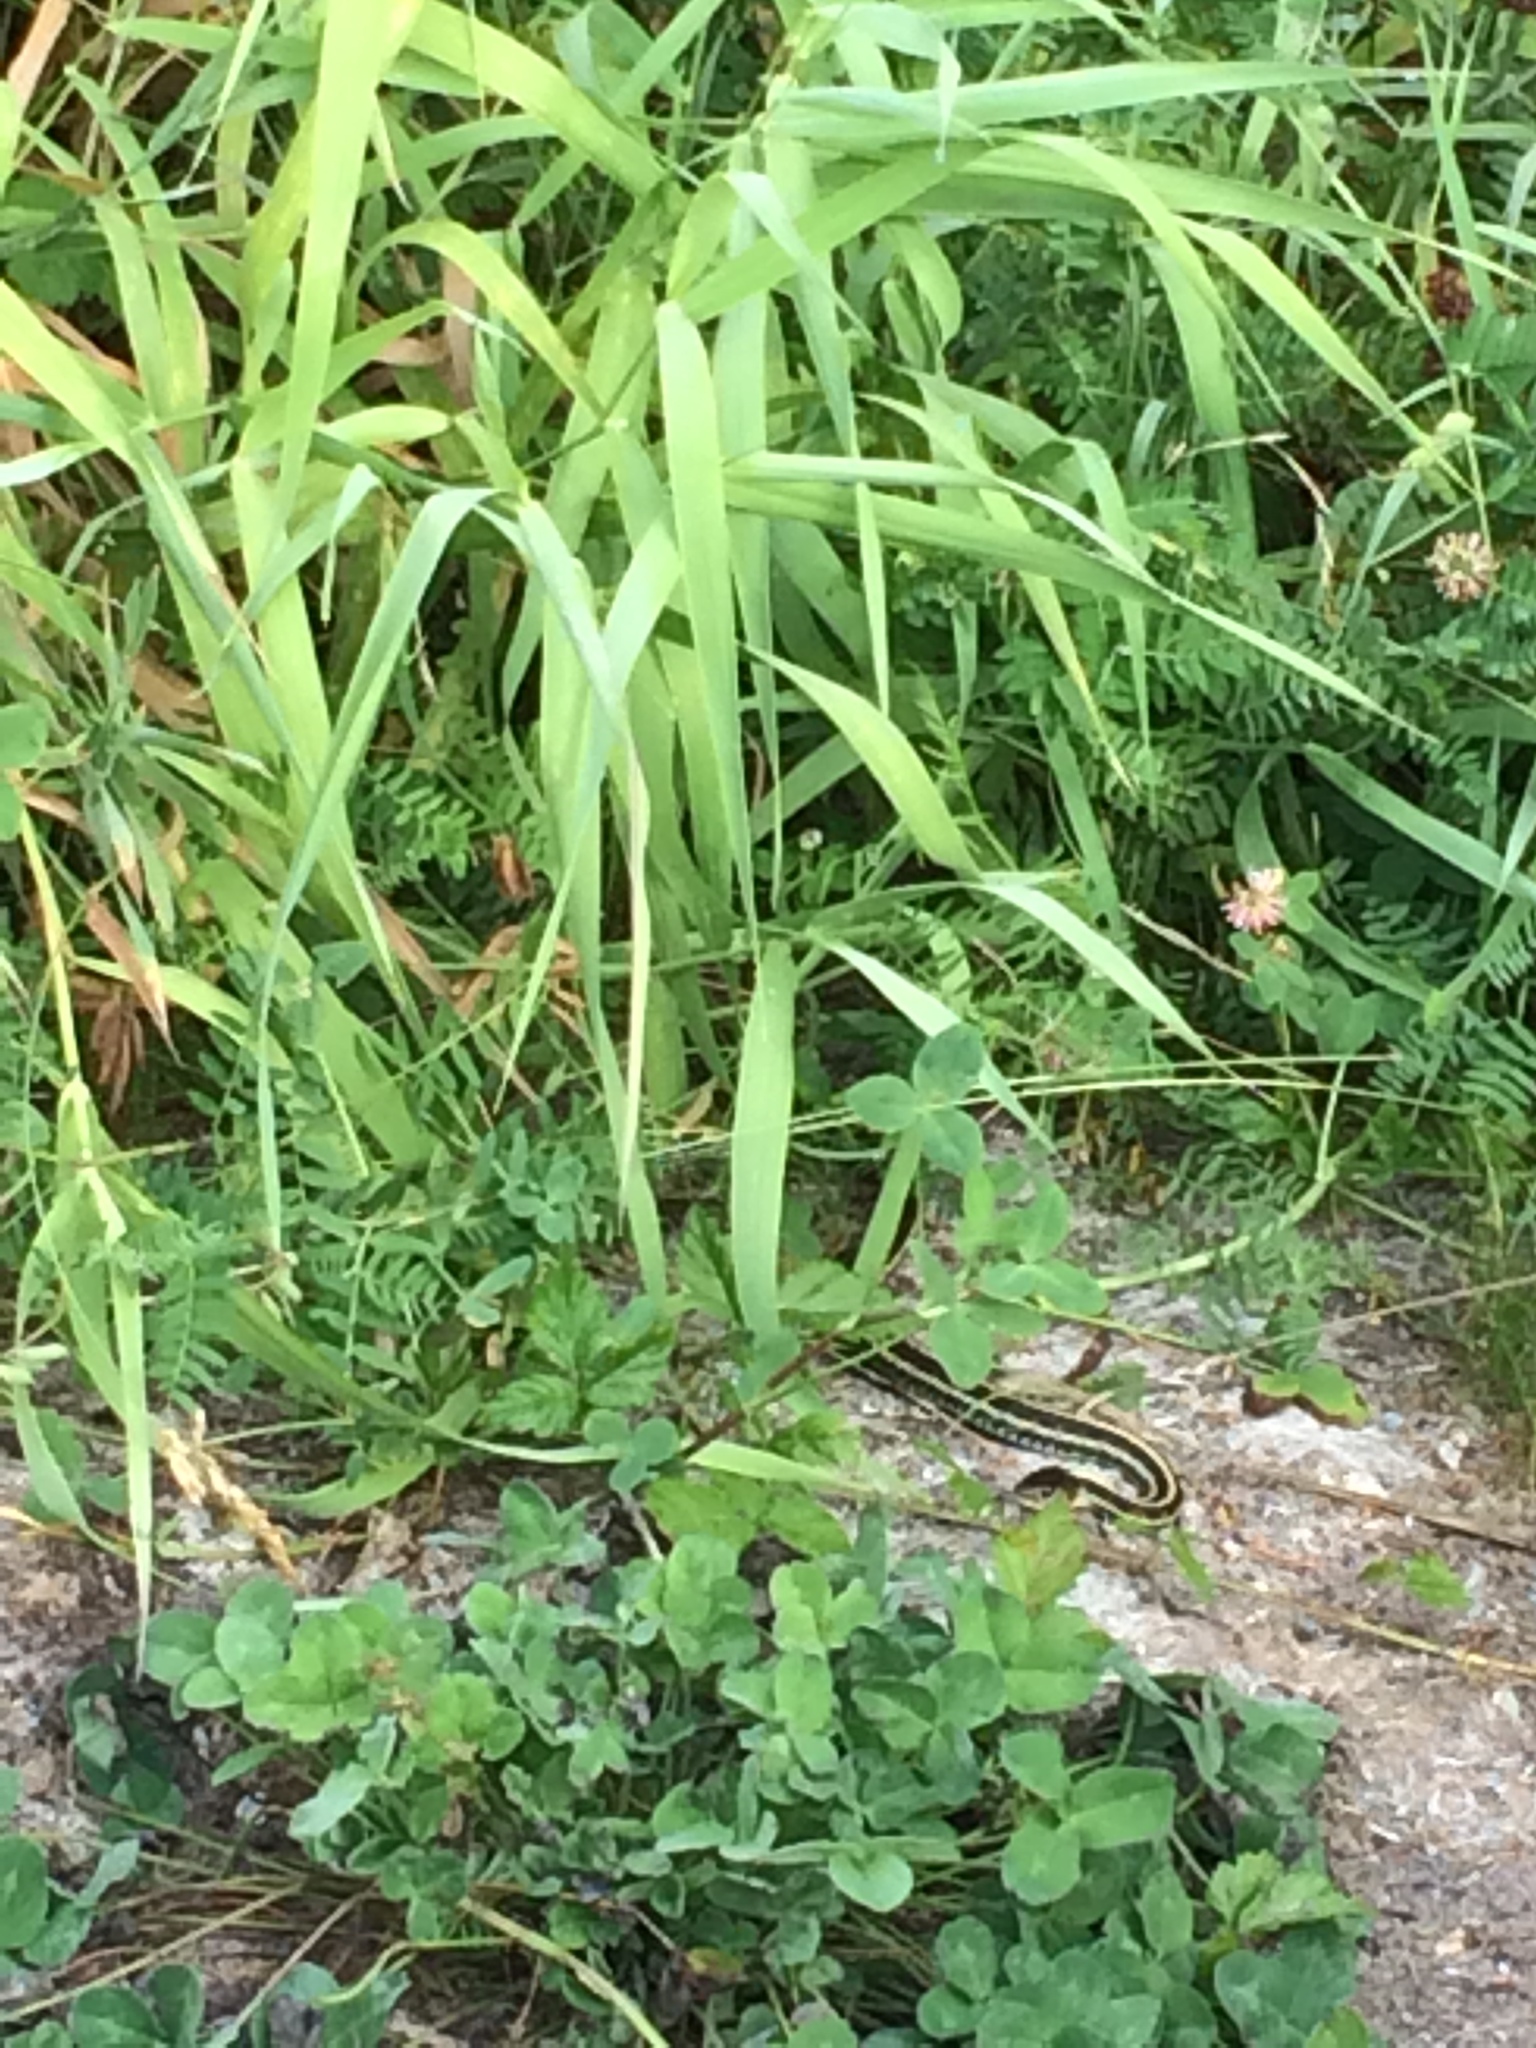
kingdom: Animalia
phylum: Chordata
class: Squamata
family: Colubridae
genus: Thamnophis
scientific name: Thamnophis sirtalis
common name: Common garter snake
